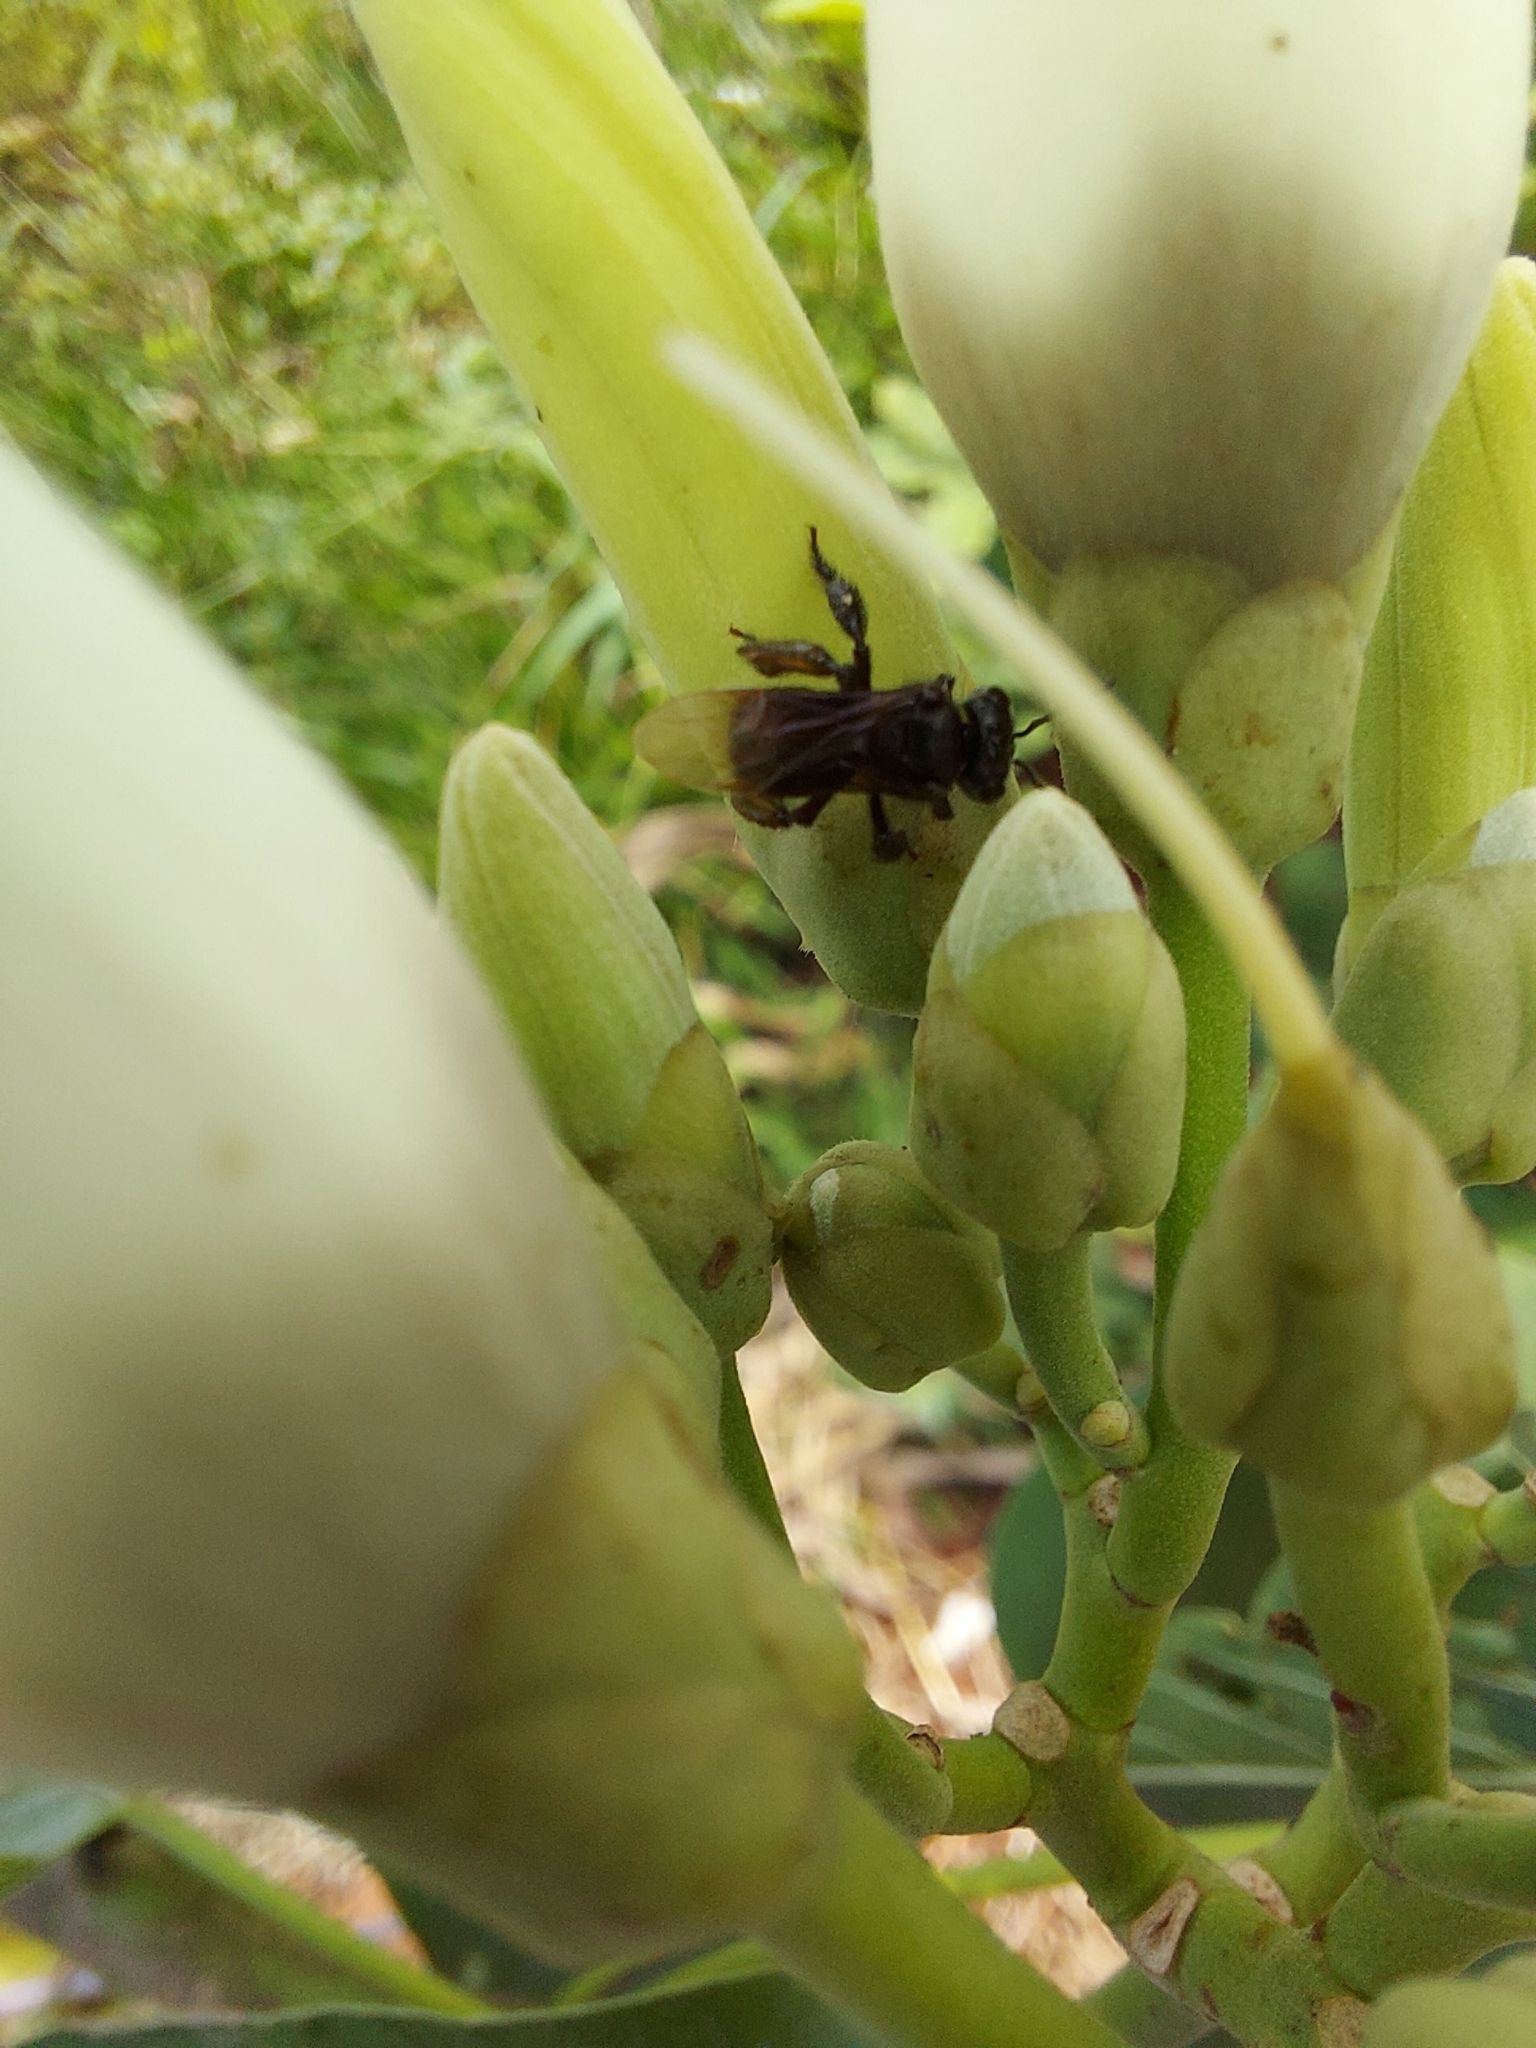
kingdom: Animalia
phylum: Arthropoda
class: Insecta
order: Hymenoptera
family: Apidae
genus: Trigona
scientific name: Trigona spinipes
